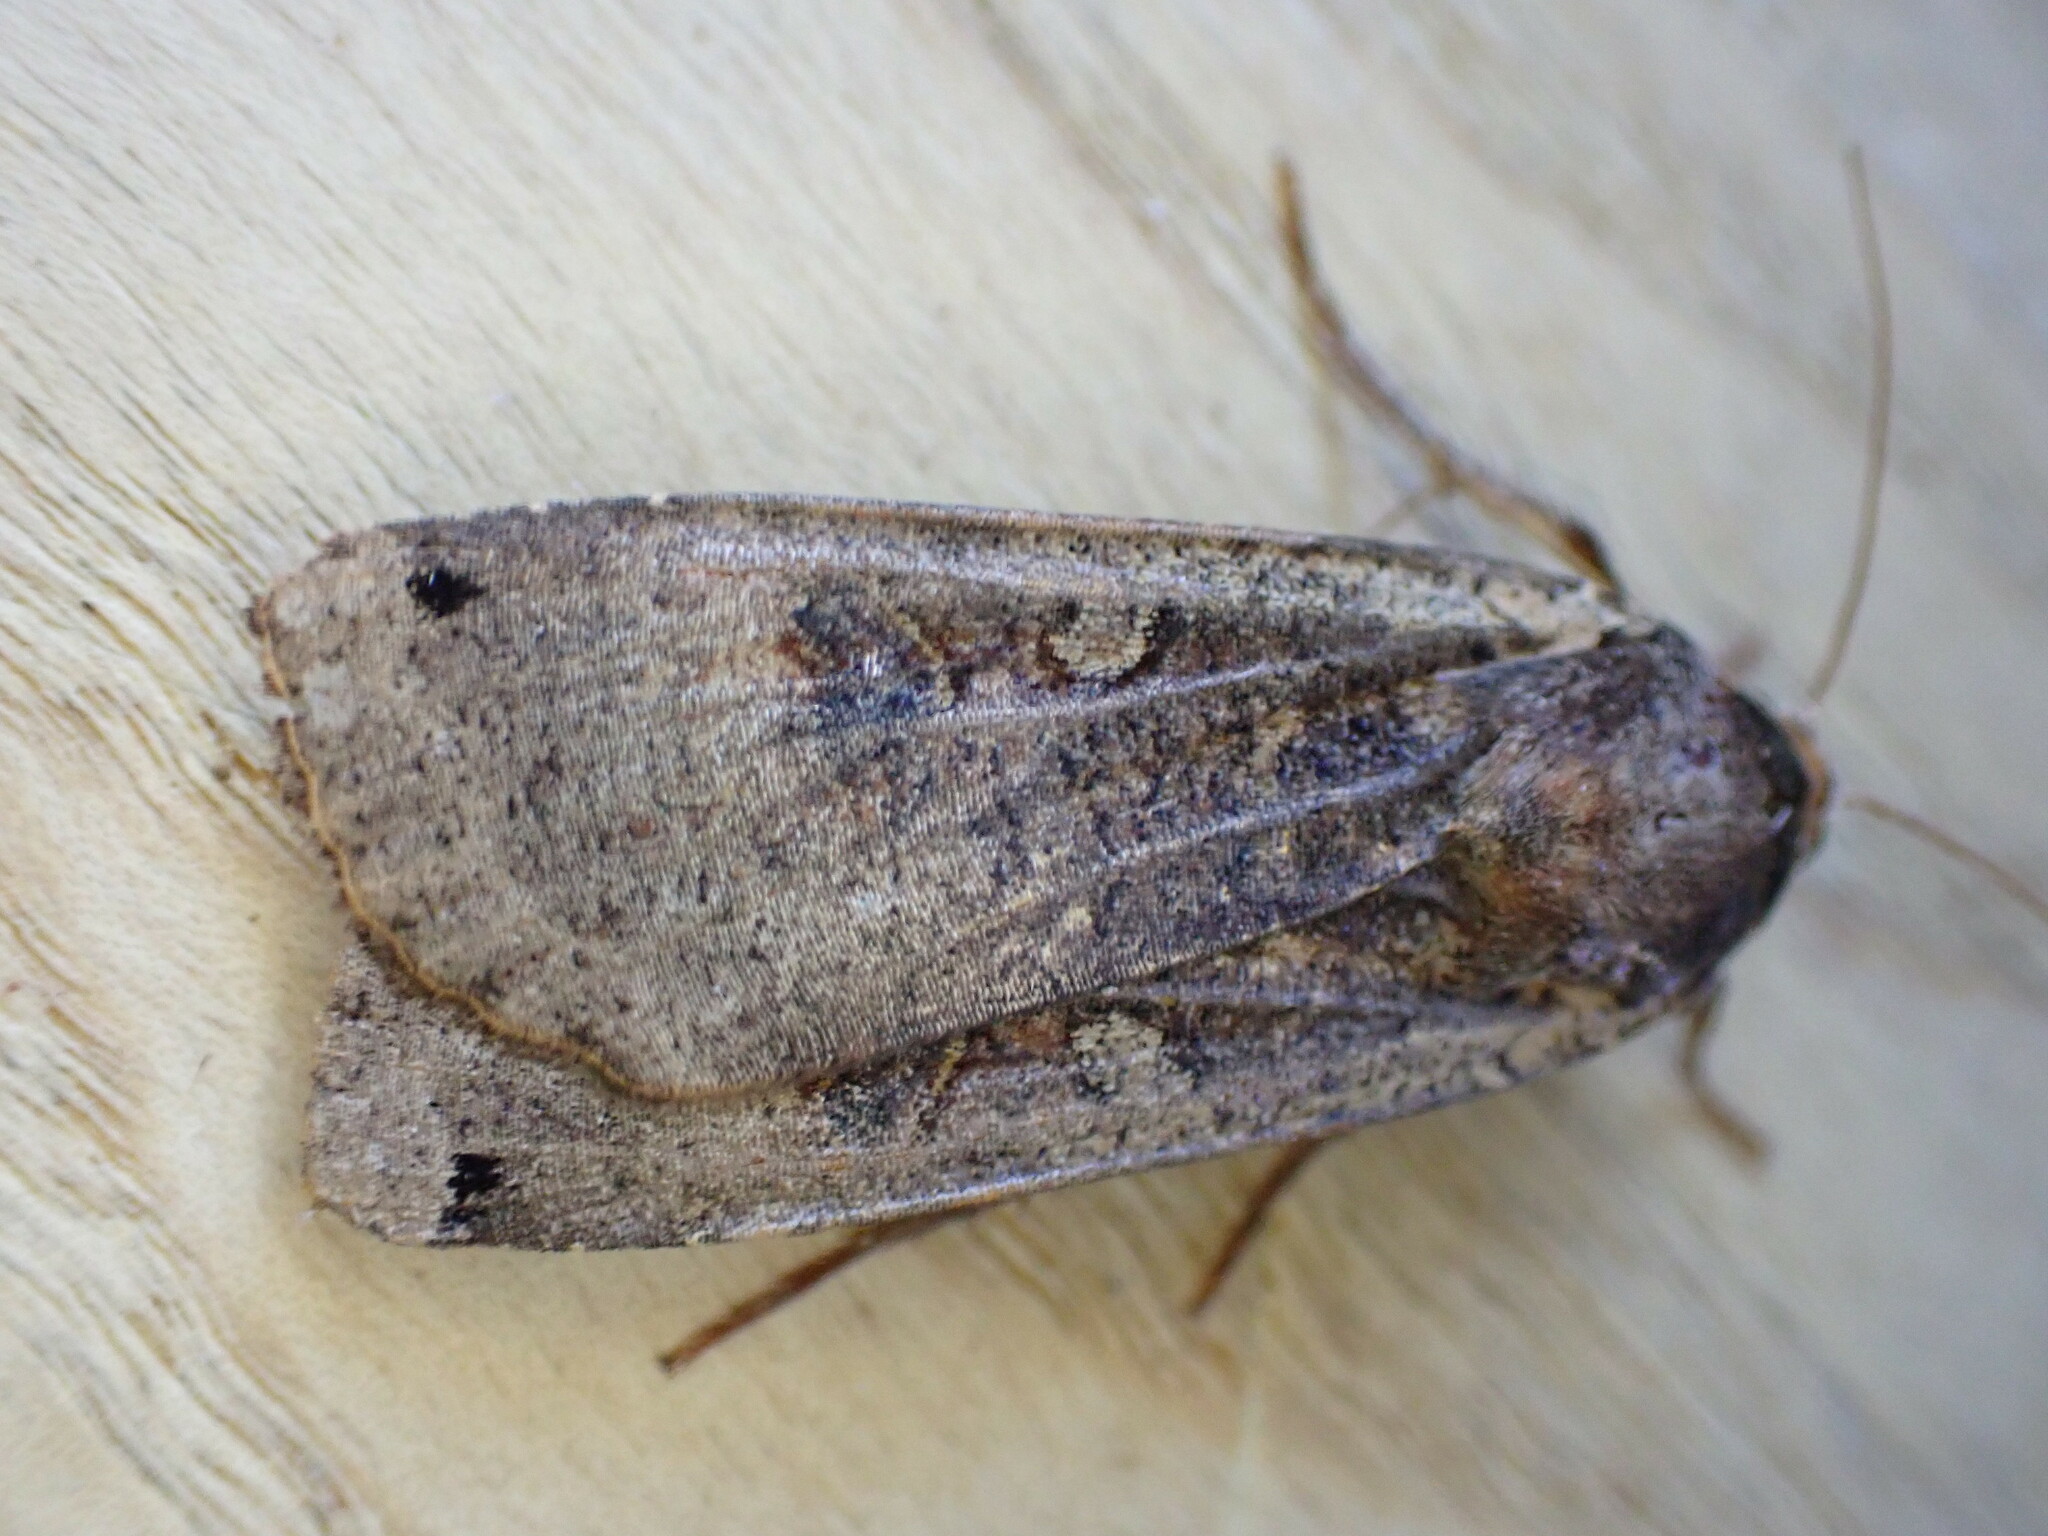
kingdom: Animalia
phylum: Arthropoda
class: Insecta
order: Lepidoptera
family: Noctuidae
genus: Noctua
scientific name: Noctua pronuba
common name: Large yellow underwing
